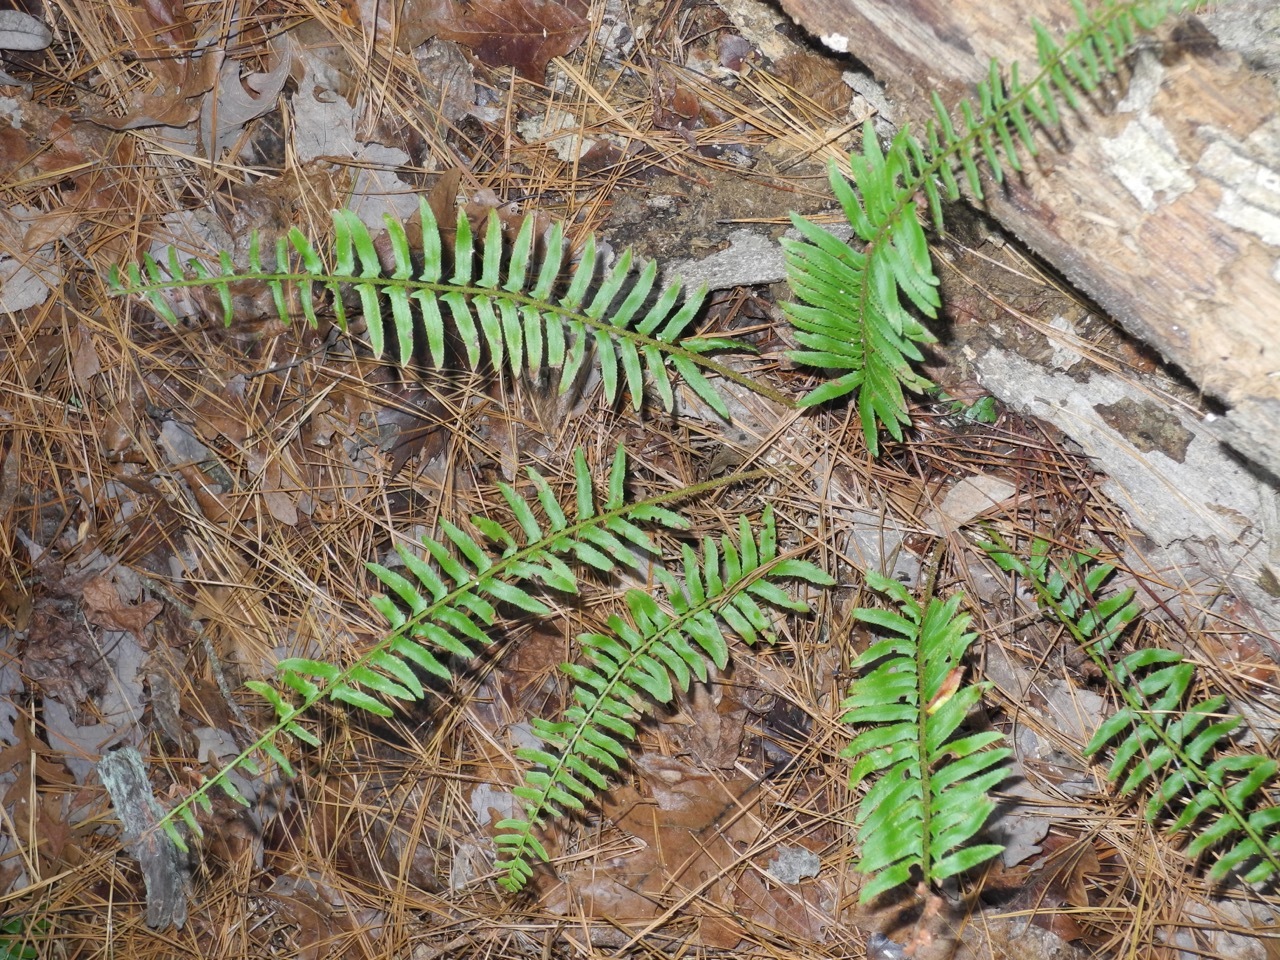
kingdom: Plantae
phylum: Tracheophyta
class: Polypodiopsida
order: Polypodiales
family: Dryopteridaceae
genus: Polystichum
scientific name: Polystichum acrostichoides
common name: Christmas fern
